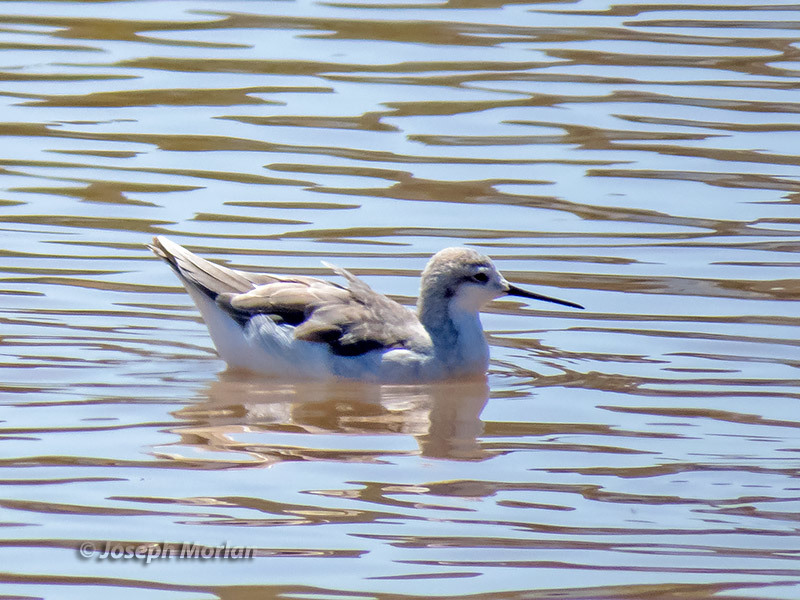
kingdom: Animalia
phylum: Chordata
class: Aves
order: Charadriiformes
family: Scolopacidae
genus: Phalaropus
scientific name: Phalaropus tricolor
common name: Wilson's phalarope
